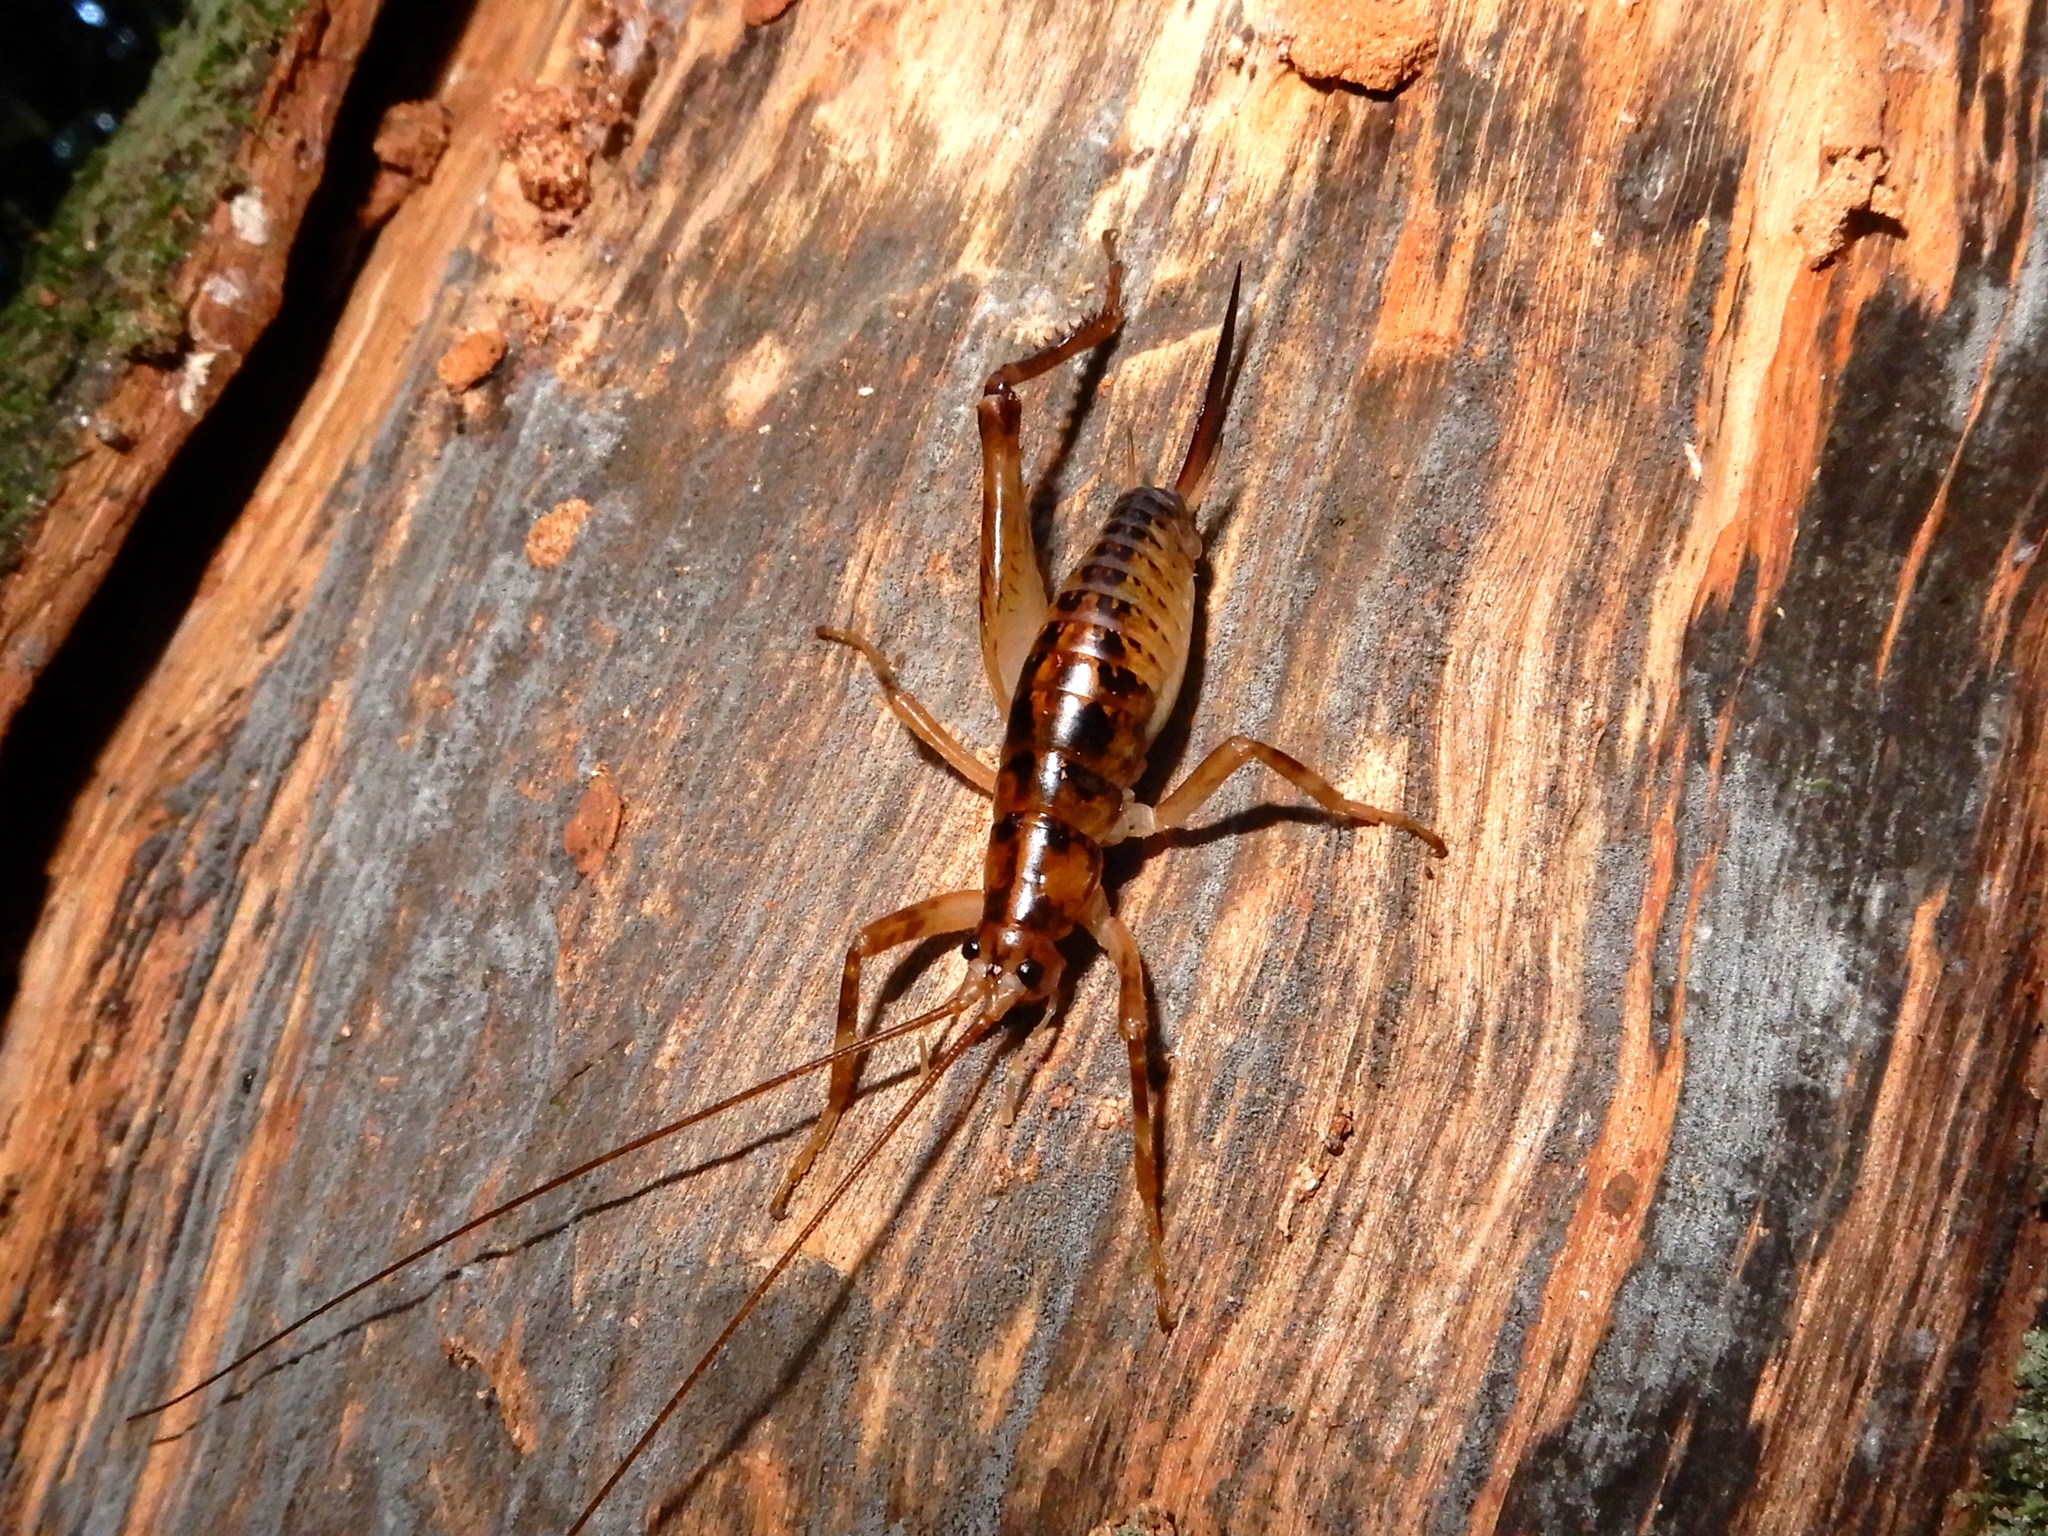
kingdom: Animalia
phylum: Arthropoda
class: Insecta
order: Orthoptera
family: Rhaphidophoridae
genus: Talitropsis
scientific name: Talitropsis sedilloti
